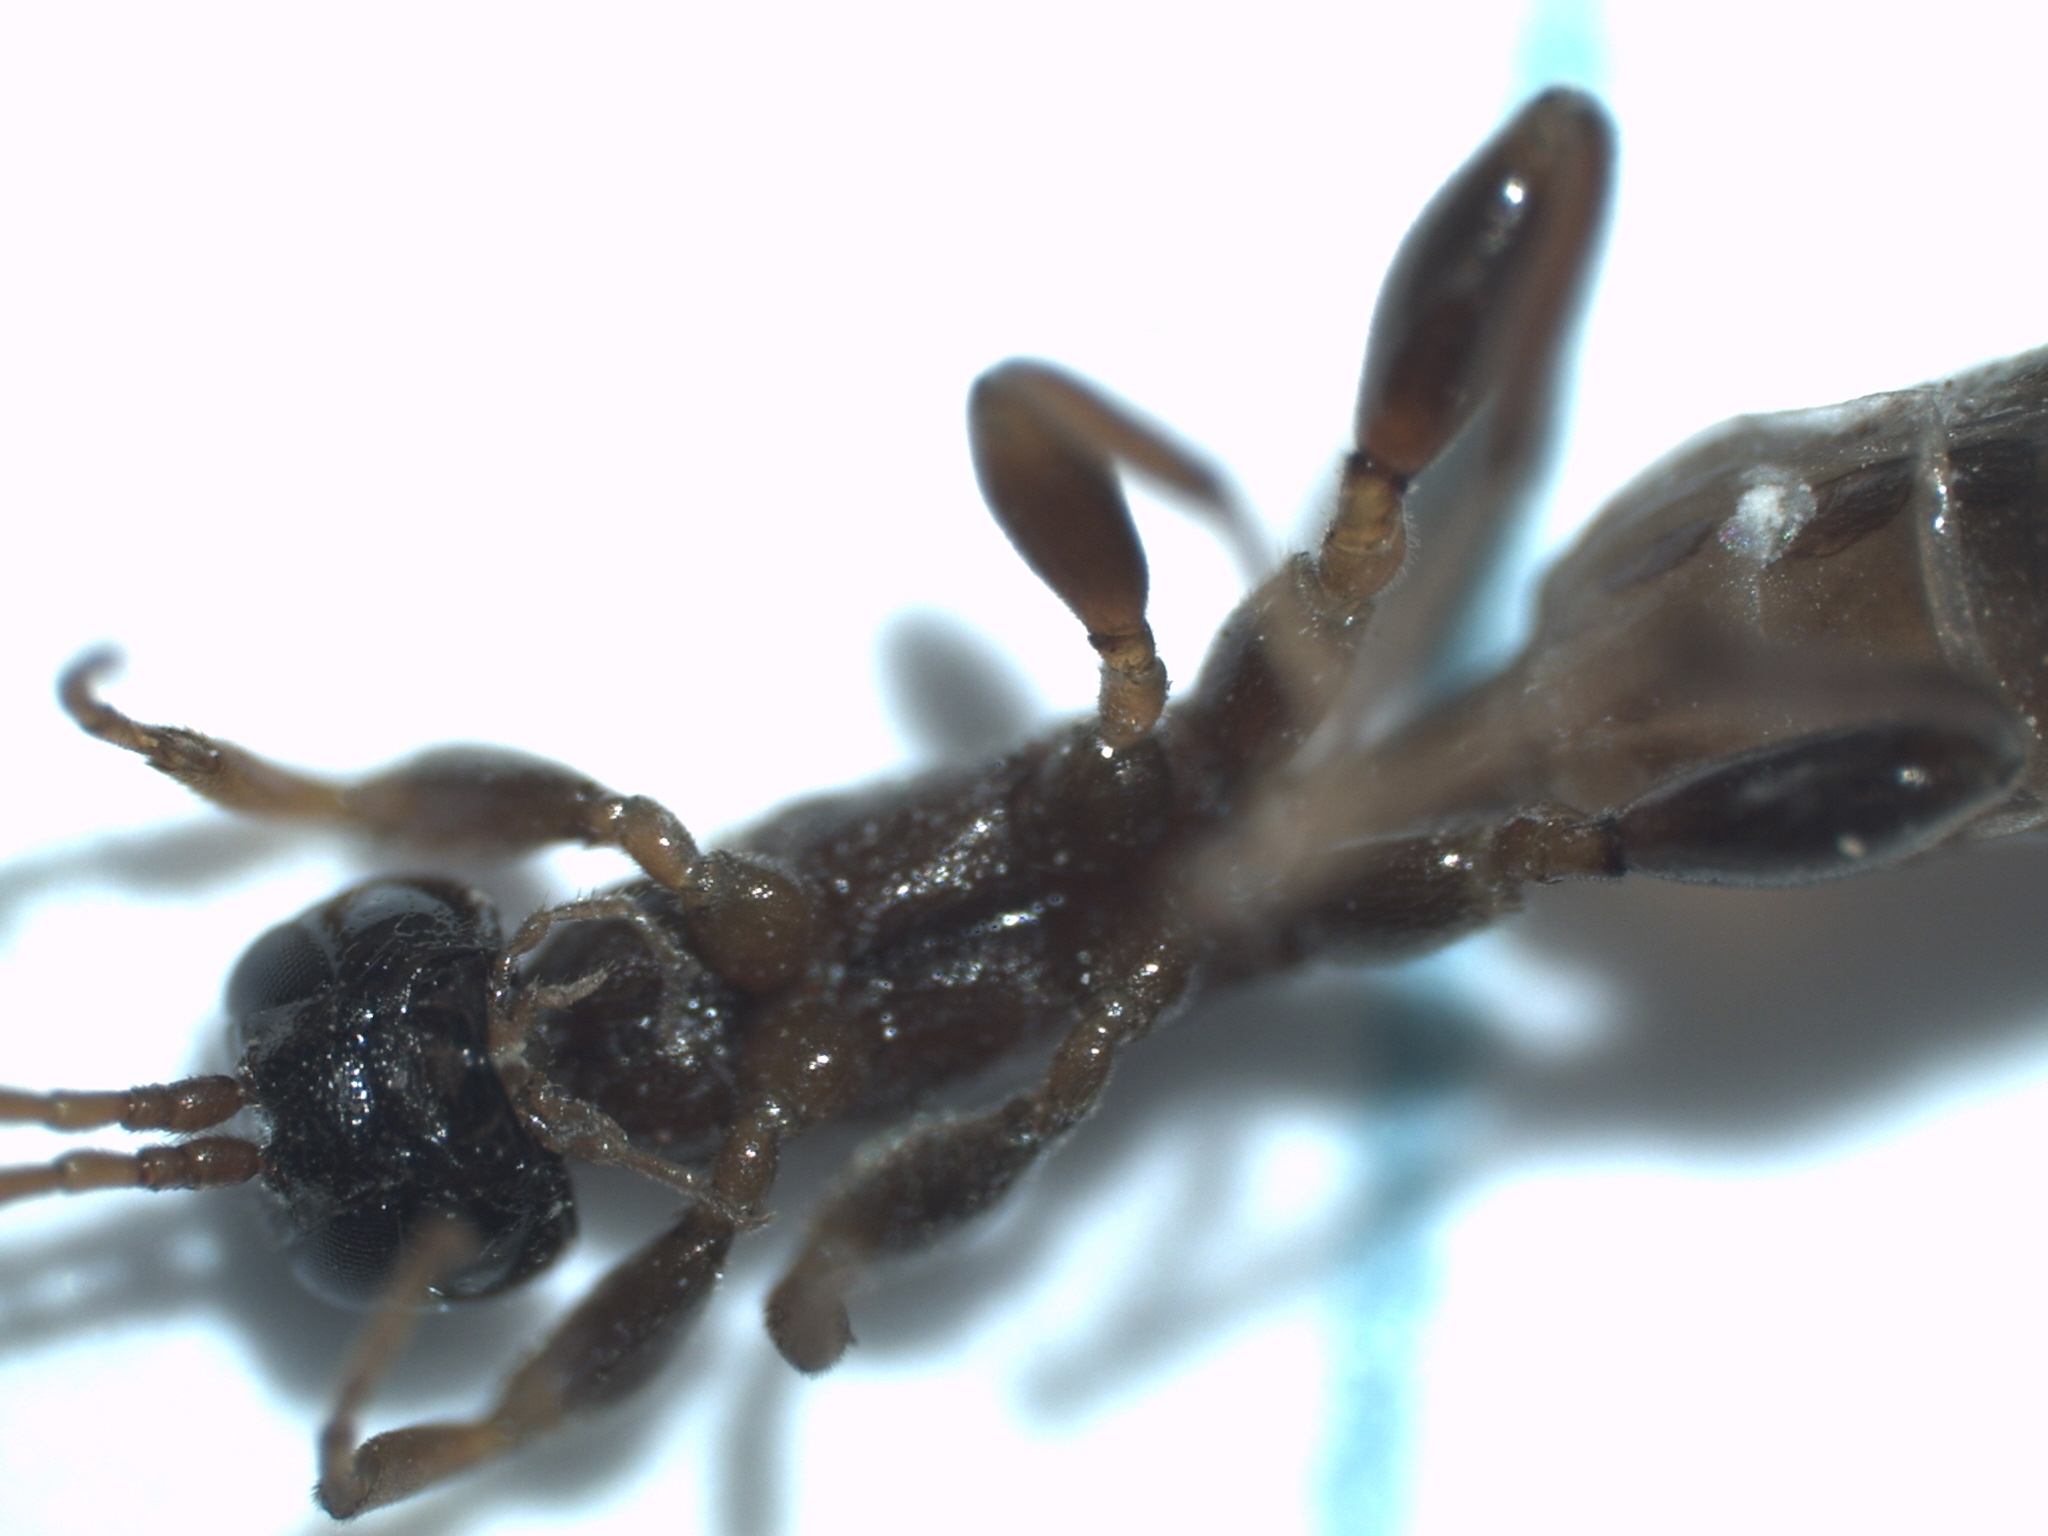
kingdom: Animalia
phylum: Arthropoda
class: Insecta
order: Hymenoptera
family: Ichneumonidae
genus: Odontocolon
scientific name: Odontocolon formicoides
